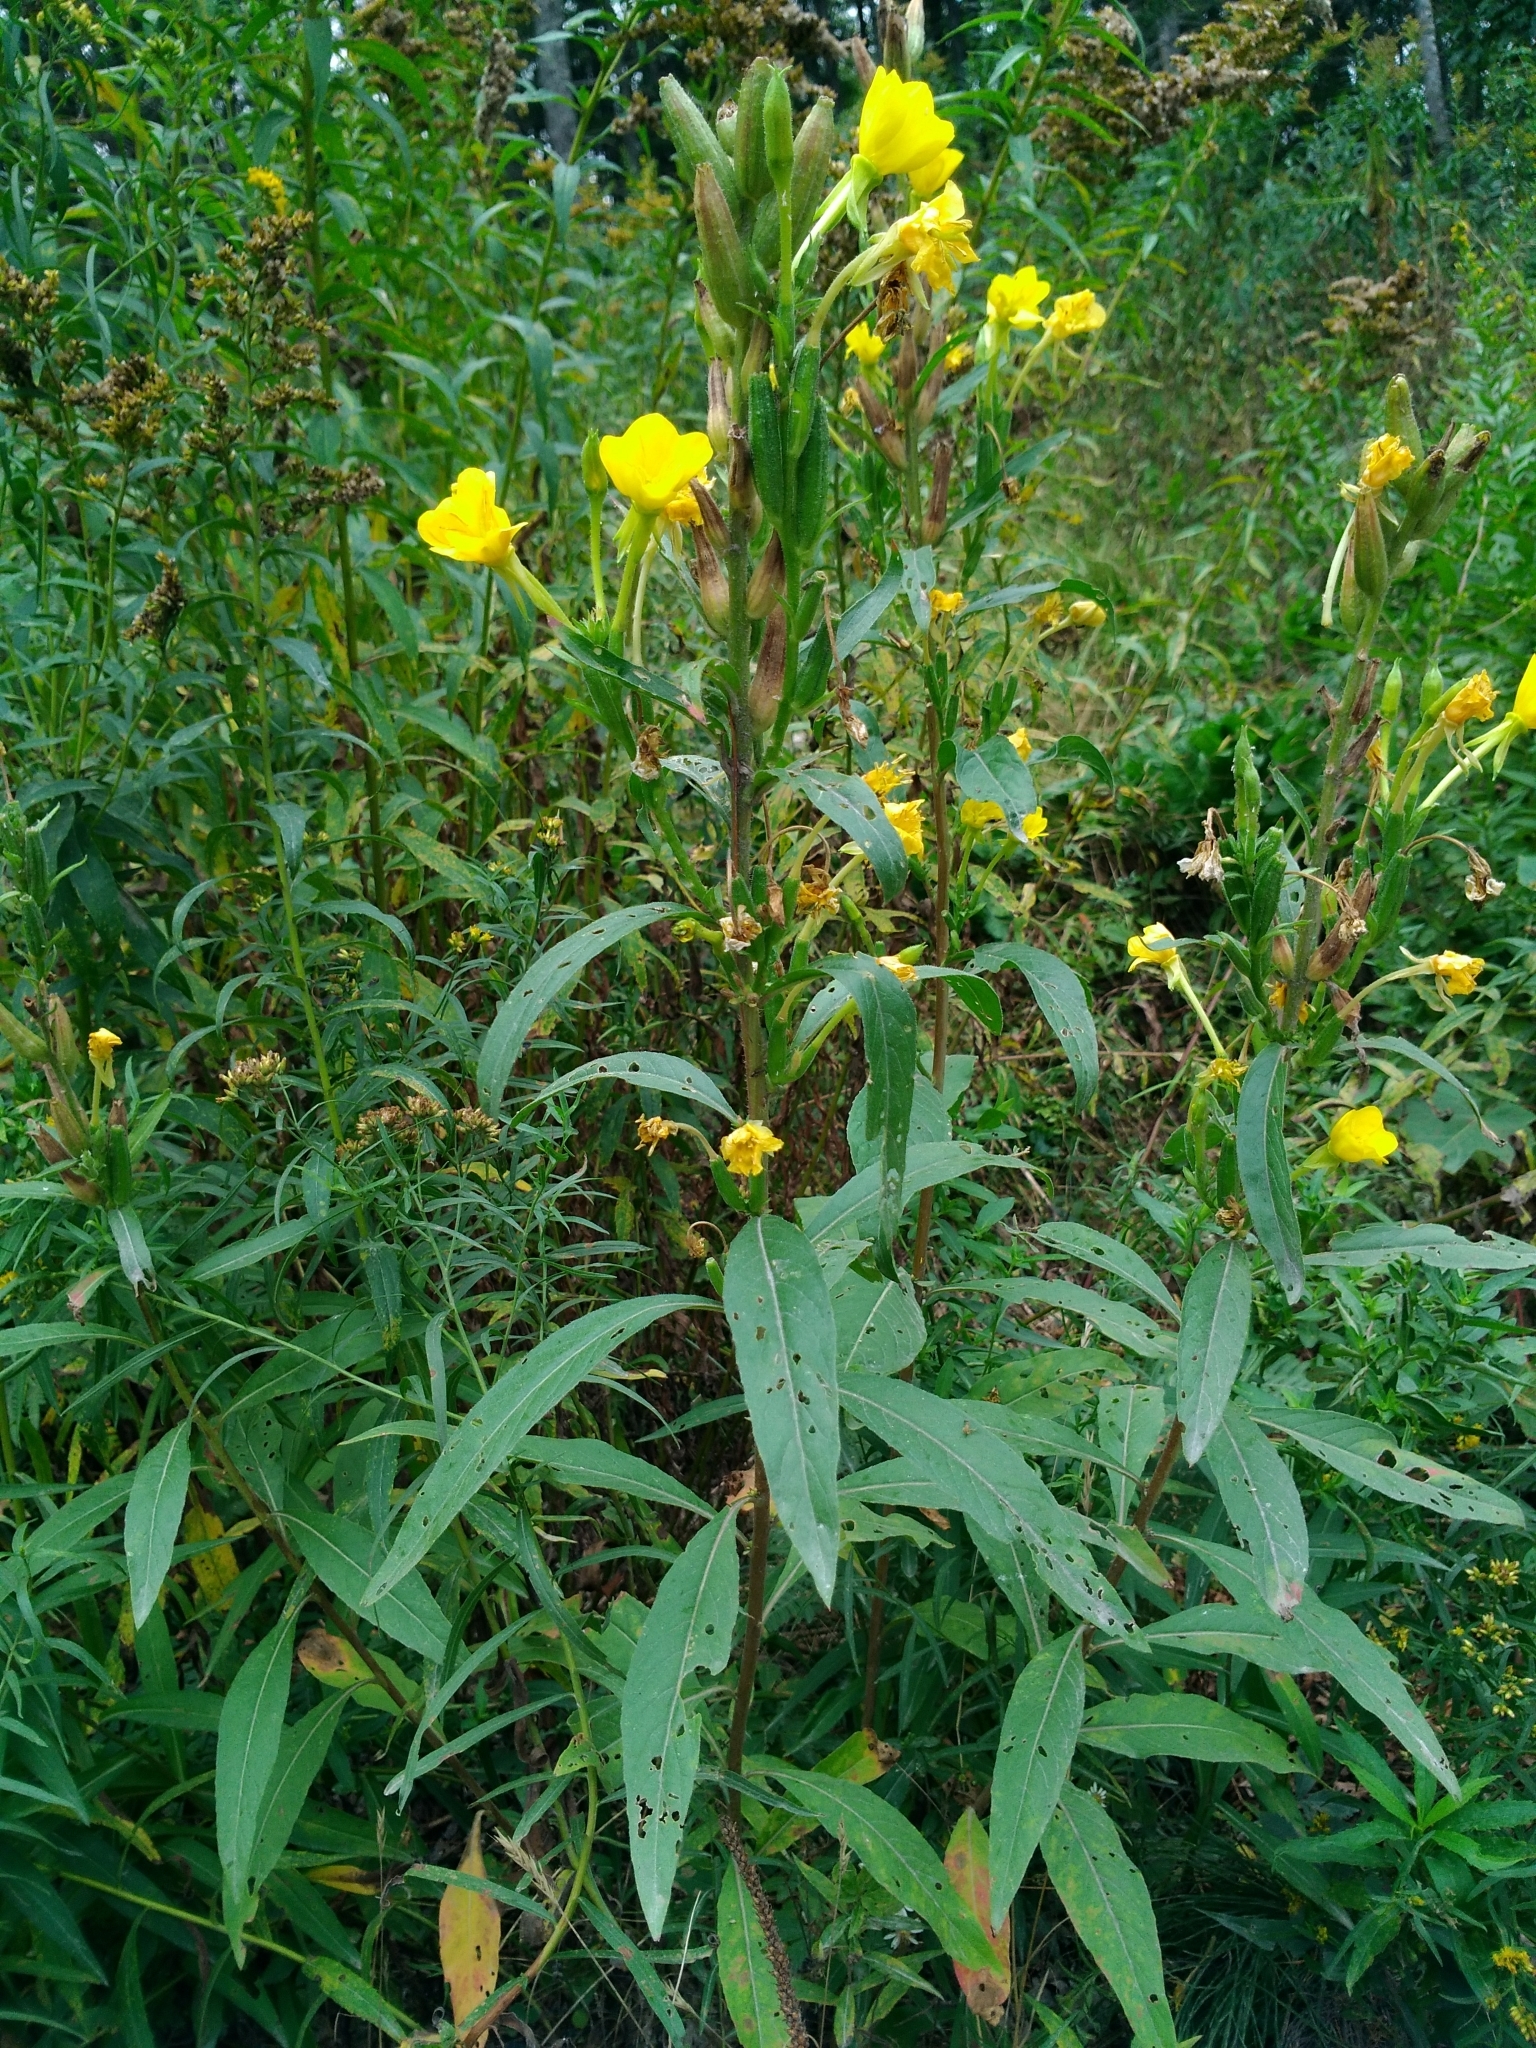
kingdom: Plantae
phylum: Tracheophyta
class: Magnoliopsida
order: Myrtales
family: Onagraceae
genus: Oenothera
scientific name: Oenothera biennis
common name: Common evening-primrose
